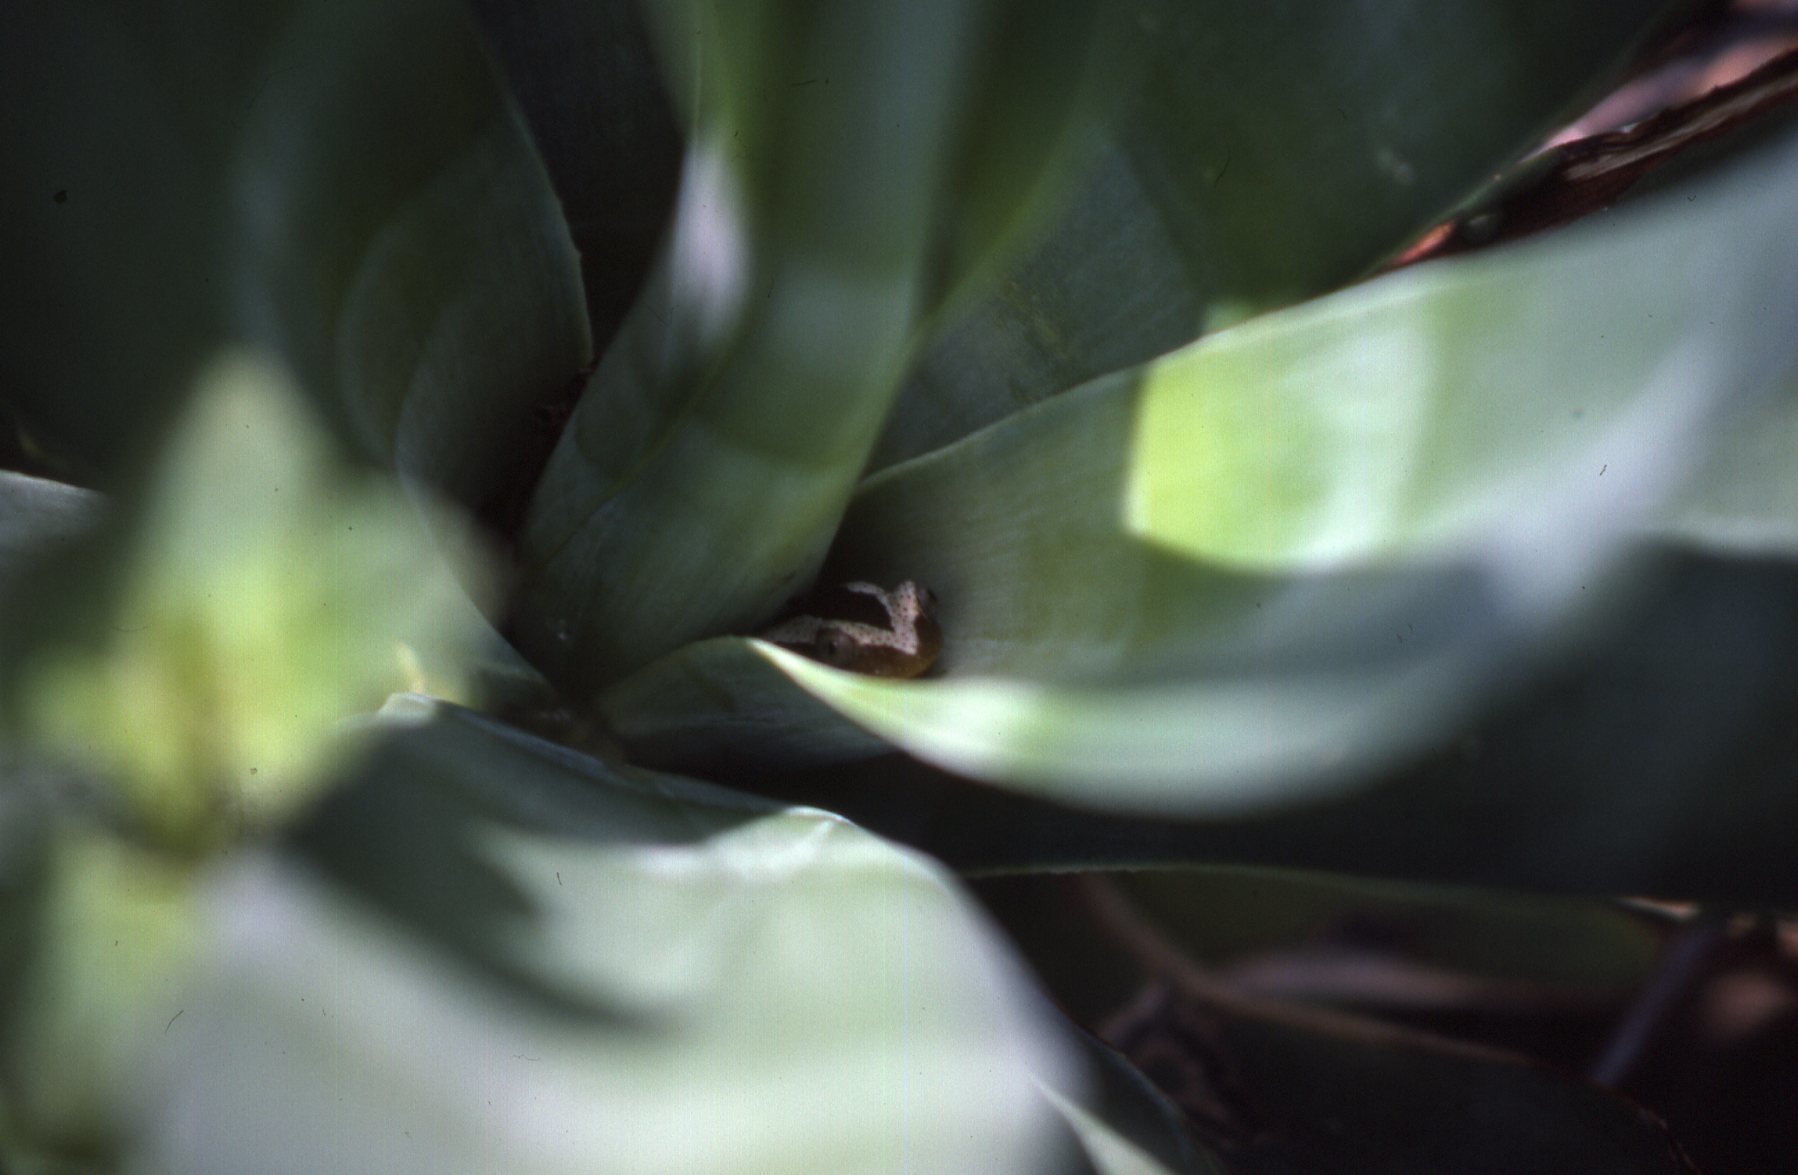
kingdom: Animalia
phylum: Chordata
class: Amphibia
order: Anura
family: Hyperoliidae
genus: Afrixalus
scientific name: Afrixalus fornasini
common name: Fornasini's spiny reed frog
